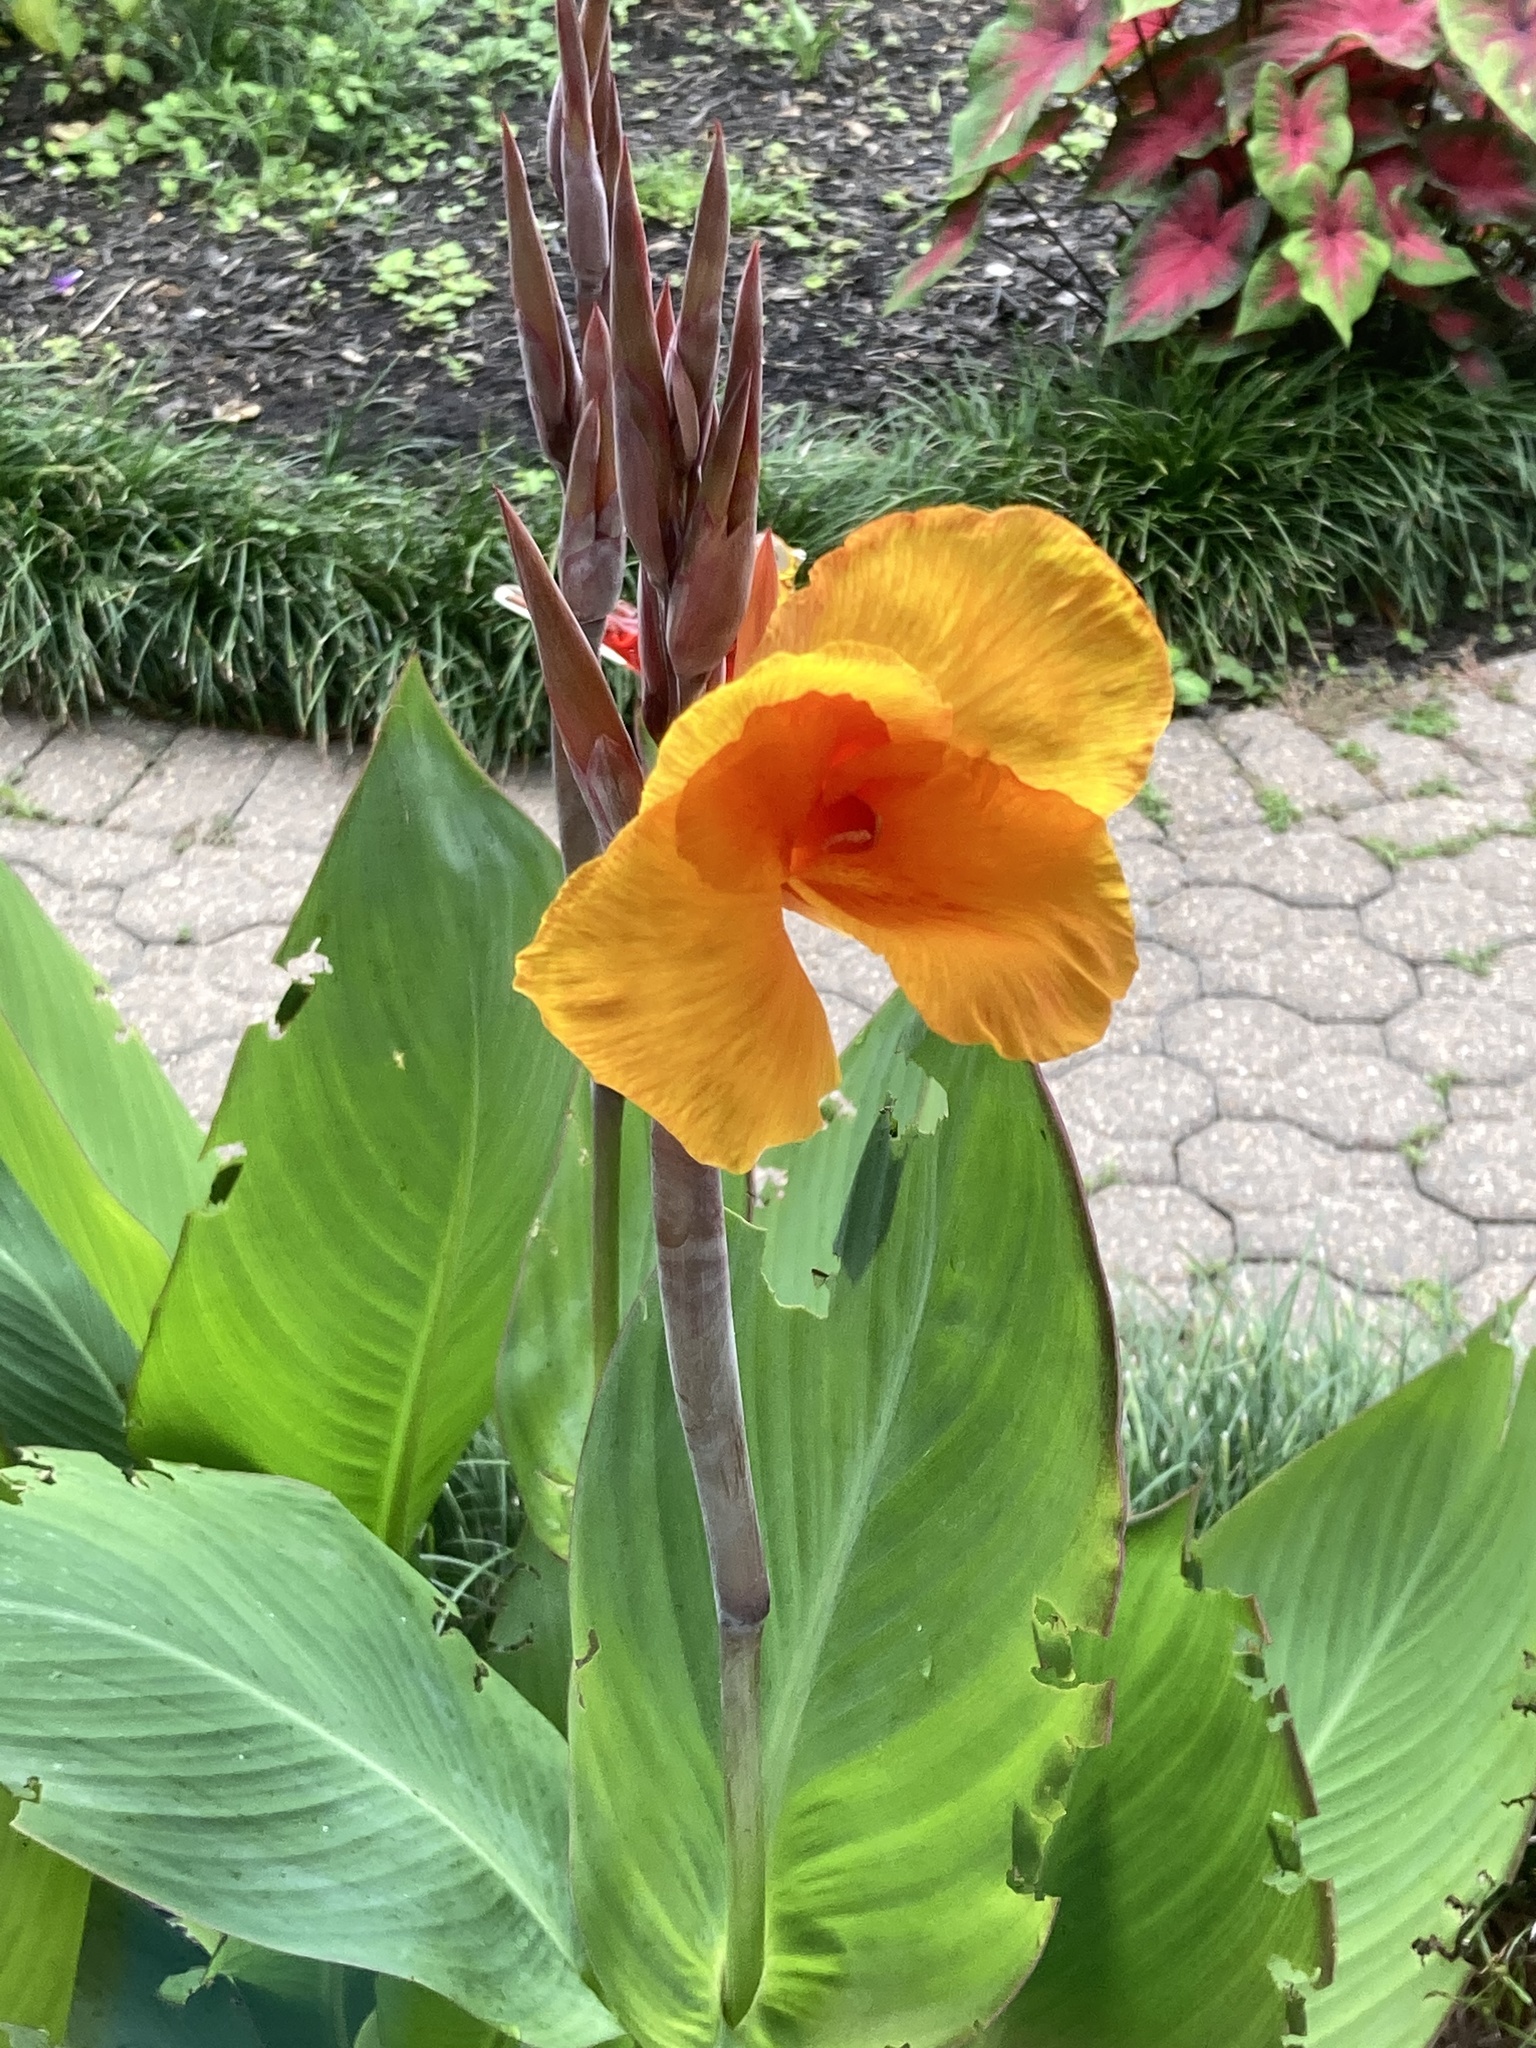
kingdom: Plantae
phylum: Tracheophyta
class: Liliopsida
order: Zingiberales
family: Cannaceae
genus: Canna
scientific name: Canna hybrida
